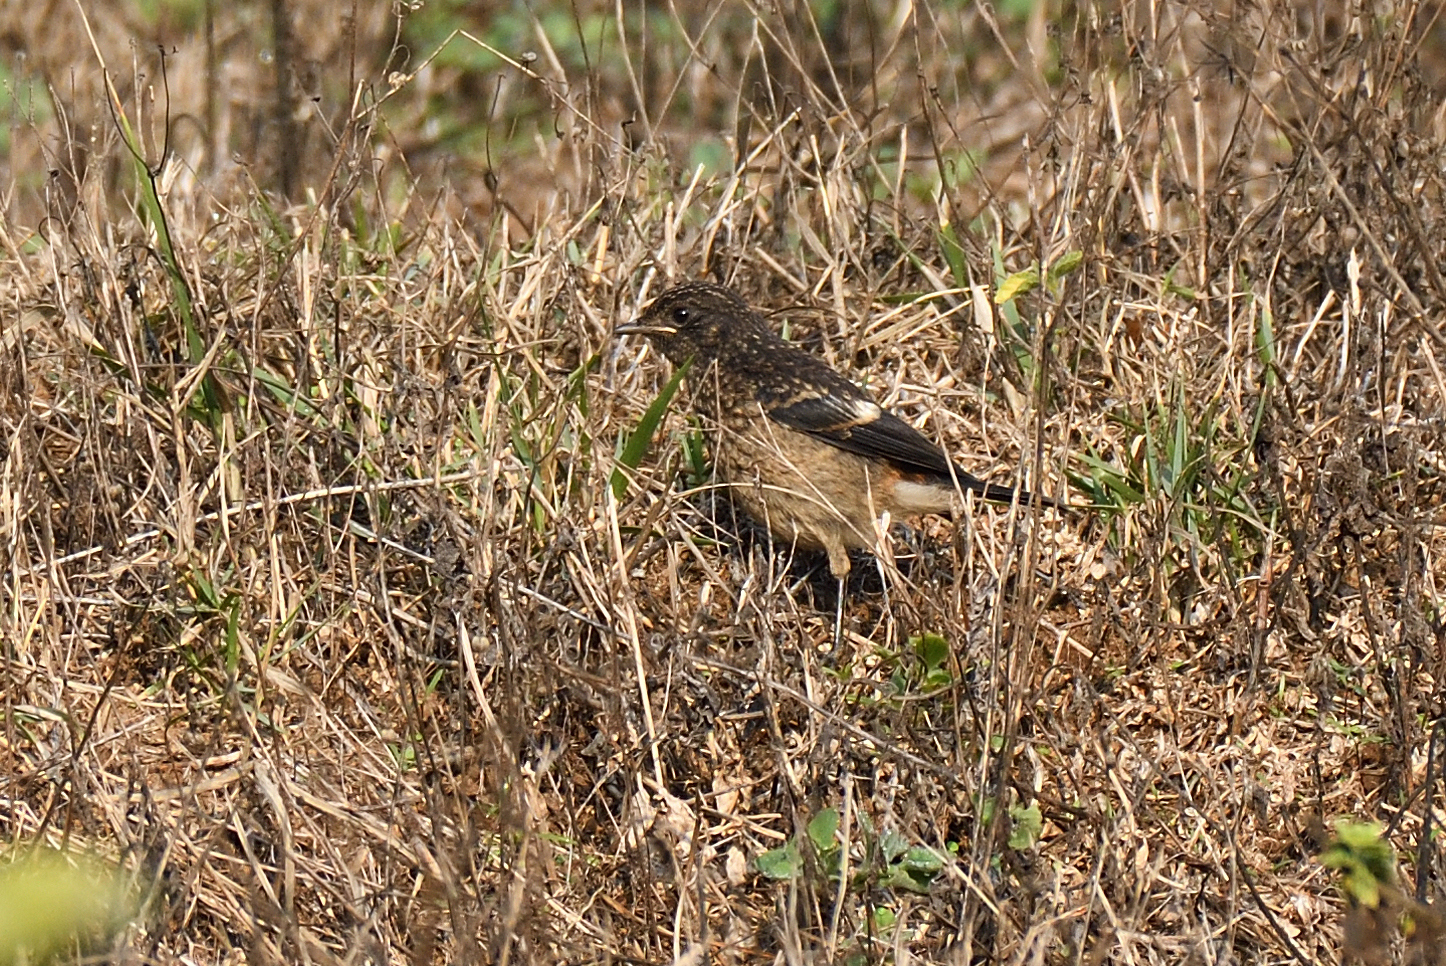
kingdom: Animalia
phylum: Chordata
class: Aves
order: Passeriformes
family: Muscicapidae
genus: Saxicola
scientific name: Saxicola caprata
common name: Pied bush chat
